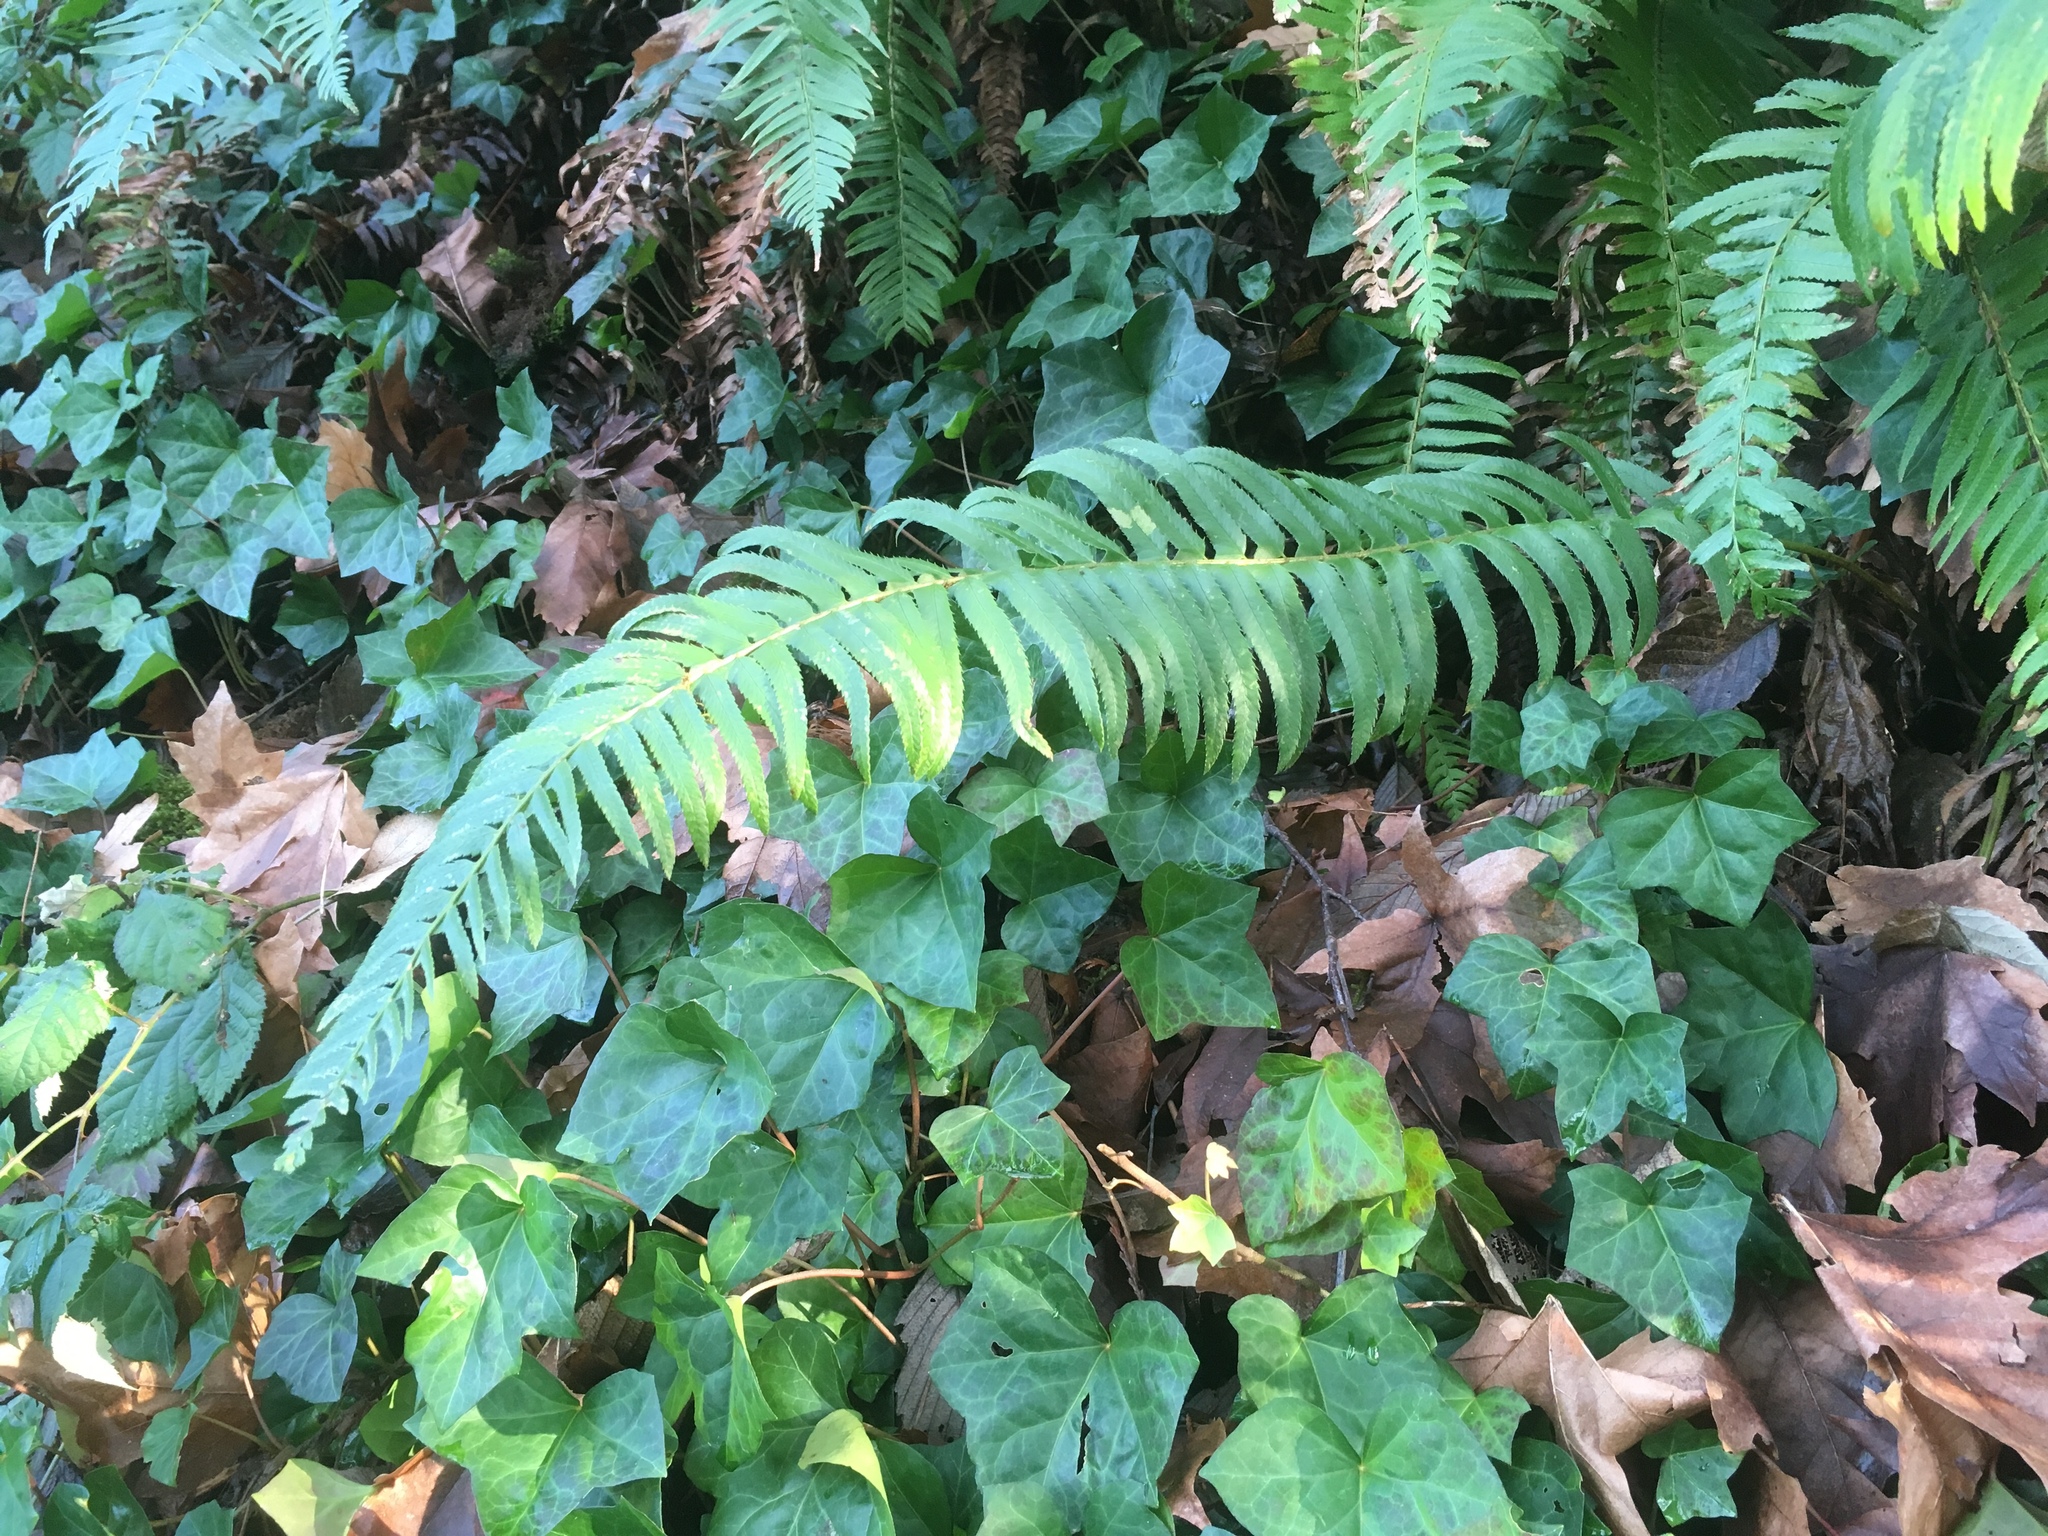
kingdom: Plantae
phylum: Tracheophyta
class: Polypodiopsida
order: Polypodiales
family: Dryopteridaceae
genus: Polystichum
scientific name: Polystichum munitum
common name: Western sword-fern
